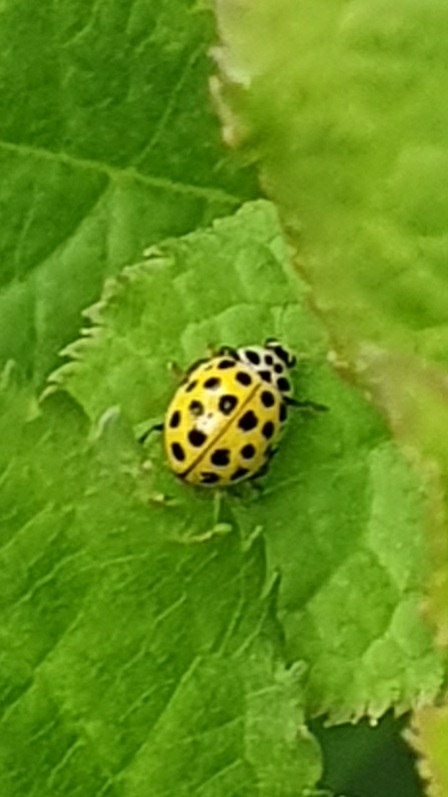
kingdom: Animalia
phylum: Arthropoda
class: Insecta
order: Coleoptera
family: Coccinellidae
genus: Psyllobora
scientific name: Psyllobora vigintiduopunctata
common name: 22-spot ladybird
